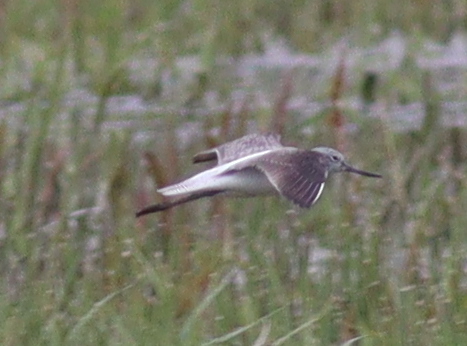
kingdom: Animalia
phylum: Chordata
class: Aves
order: Charadriiformes
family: Scolopacidae
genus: Tringa
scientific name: Tringa nebularia
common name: Common greenshank
